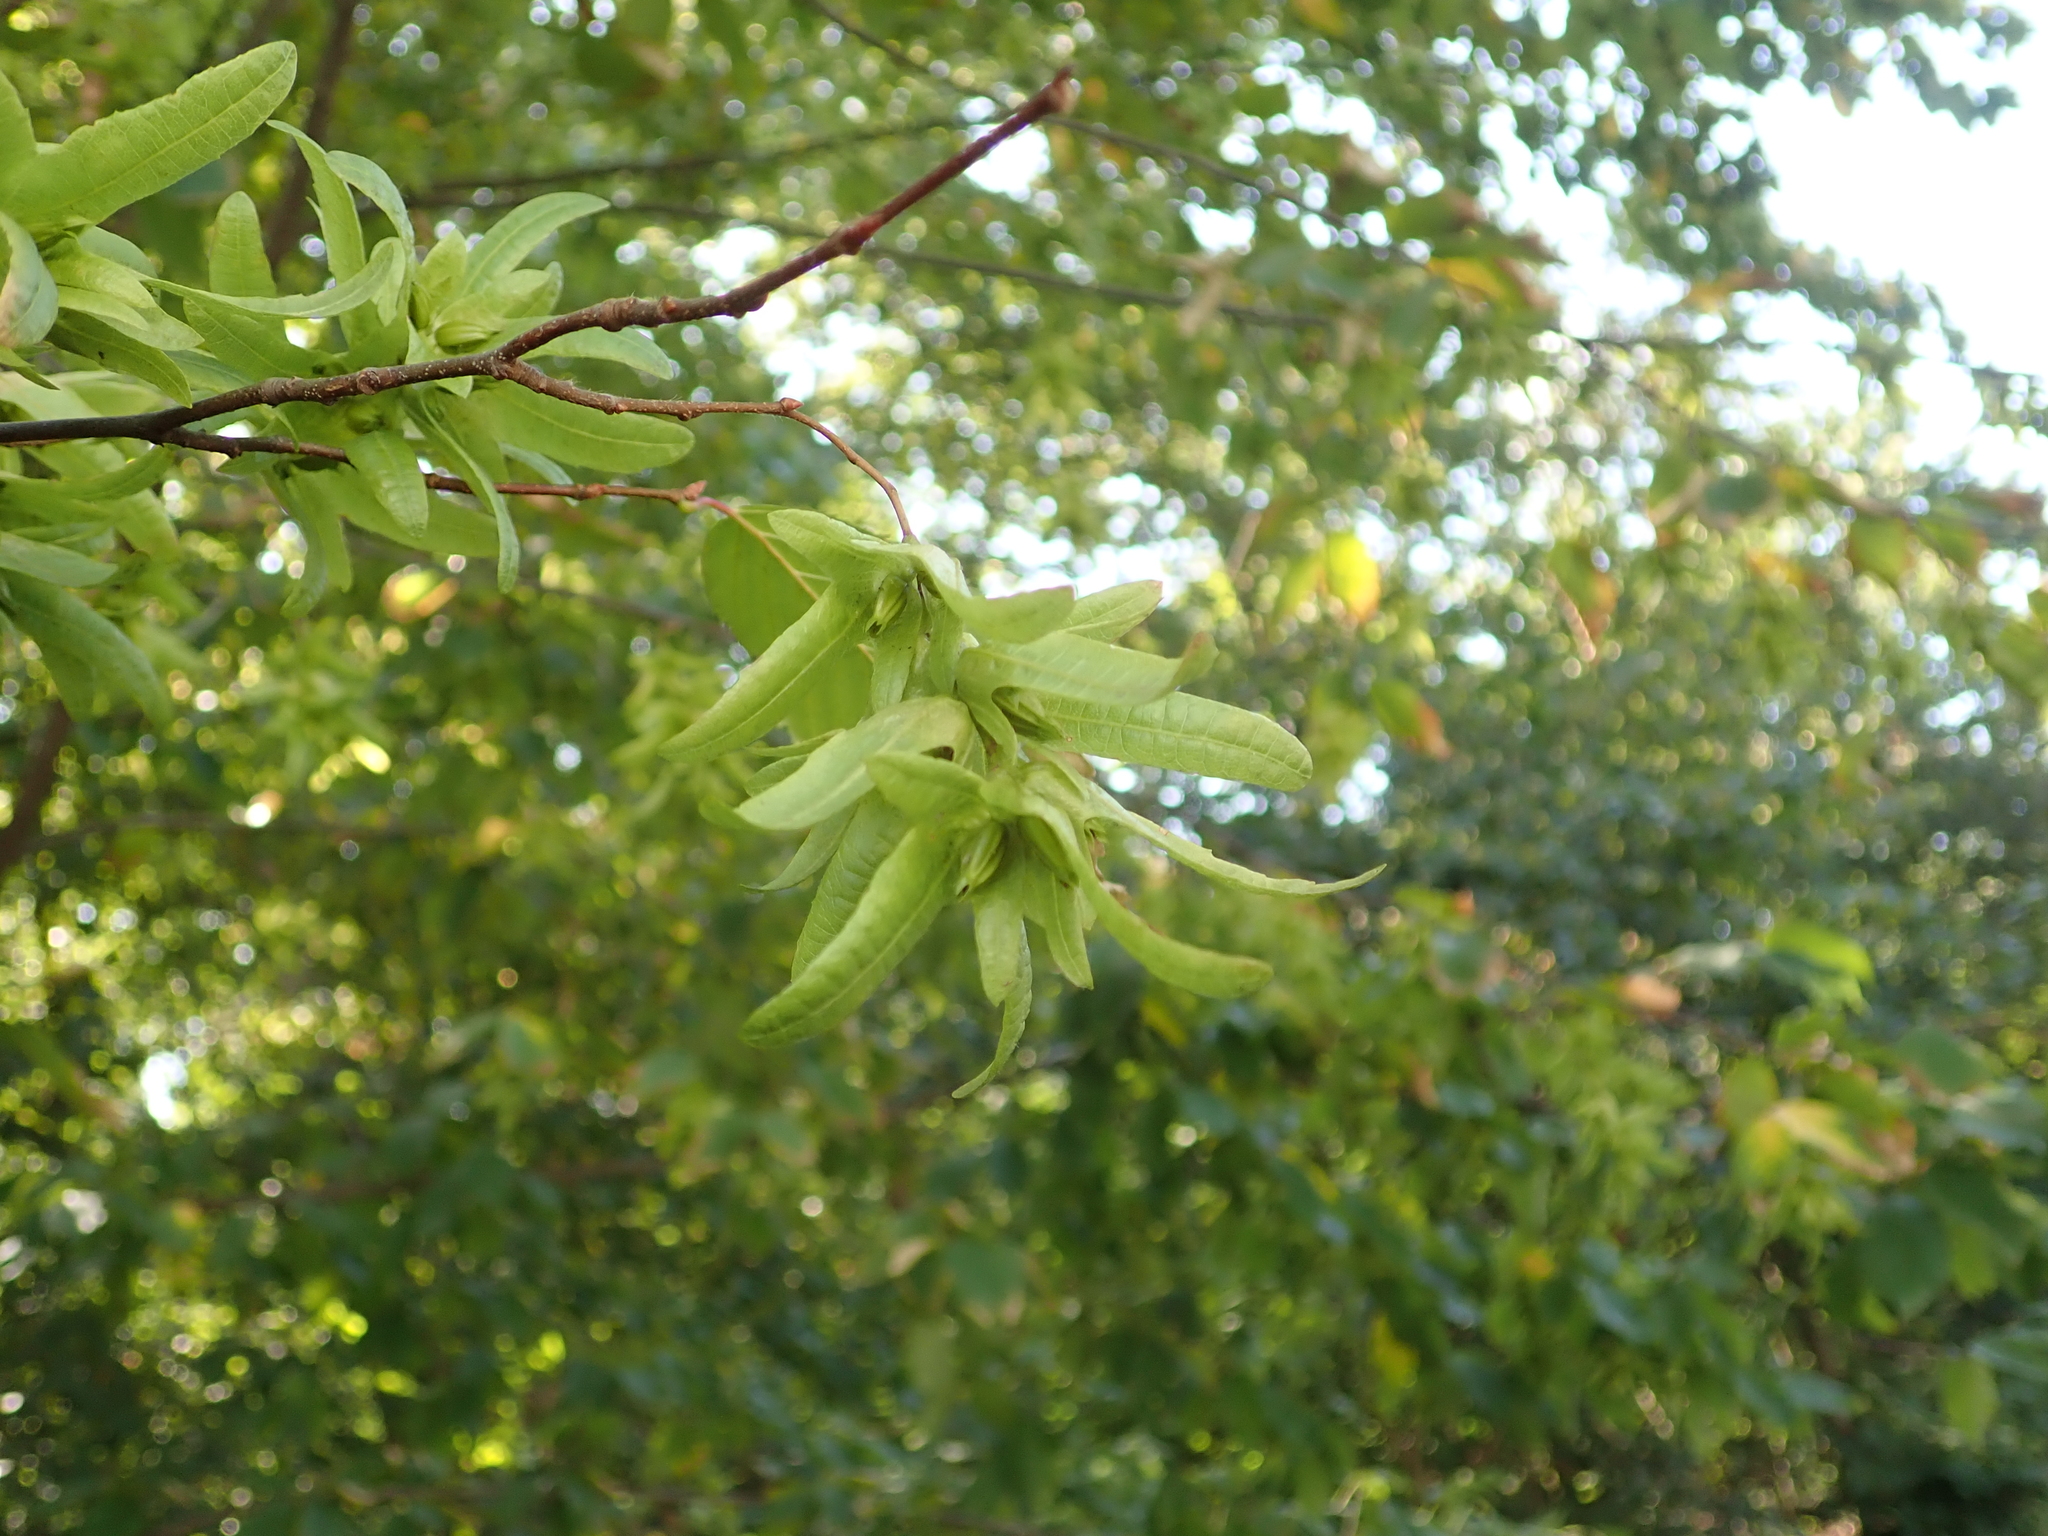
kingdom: Plantae
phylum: Tracheophyta
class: Magnoliopsida
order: Fagales
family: Betulaceae
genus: Carpinus
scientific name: Carpinus betulus
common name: Hornbeam
